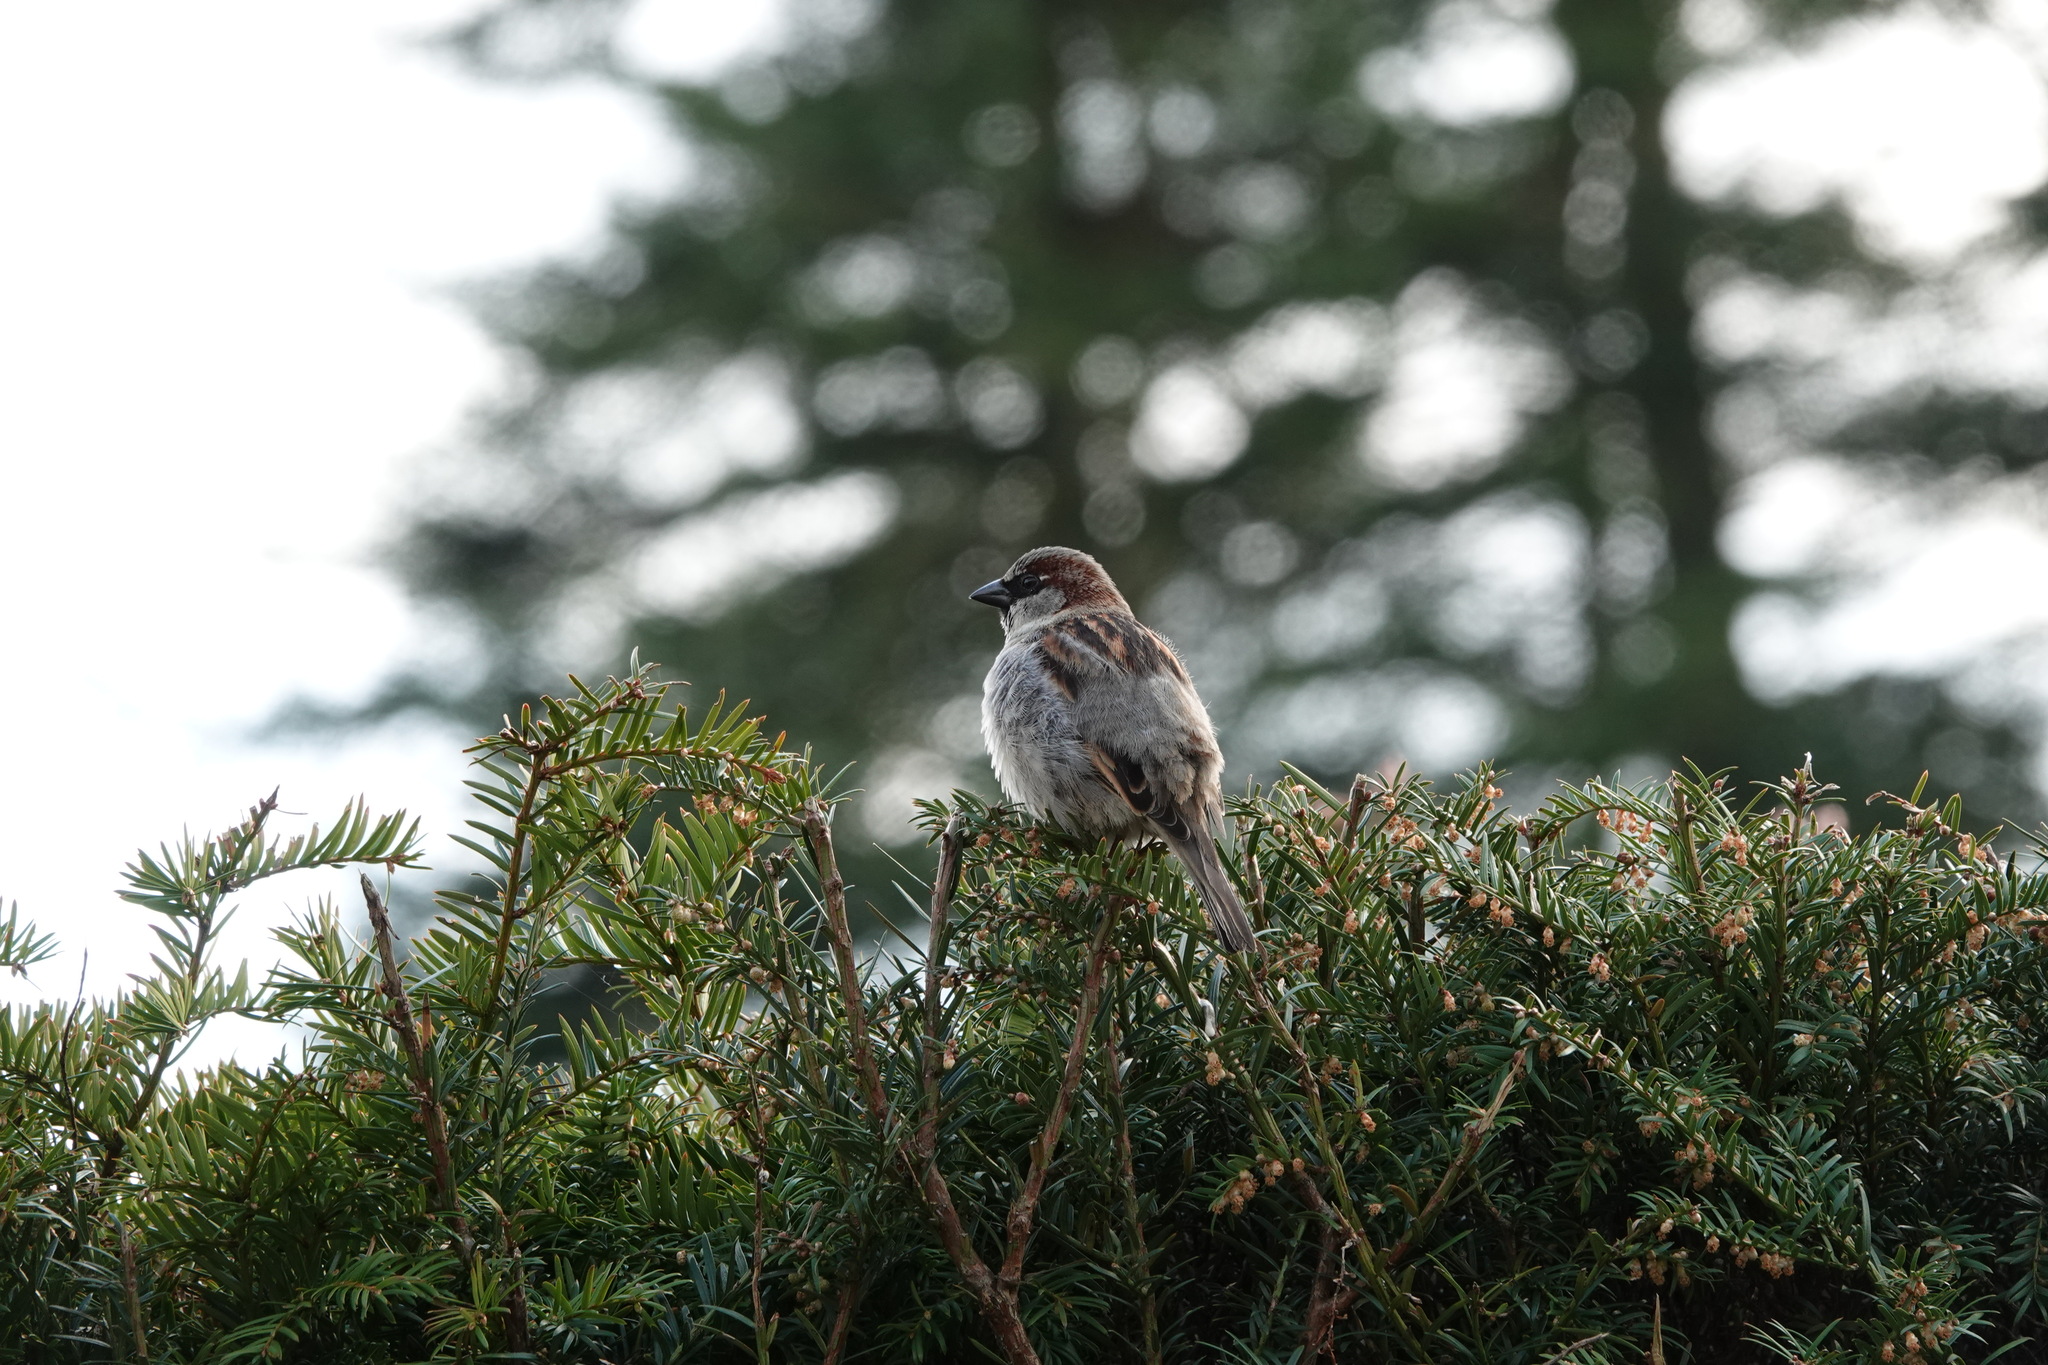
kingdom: Animalia
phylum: Chordata
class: Aves
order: Passeriformes
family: Passeridae
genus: Passer
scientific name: Passer domesticus
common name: House sparrow
